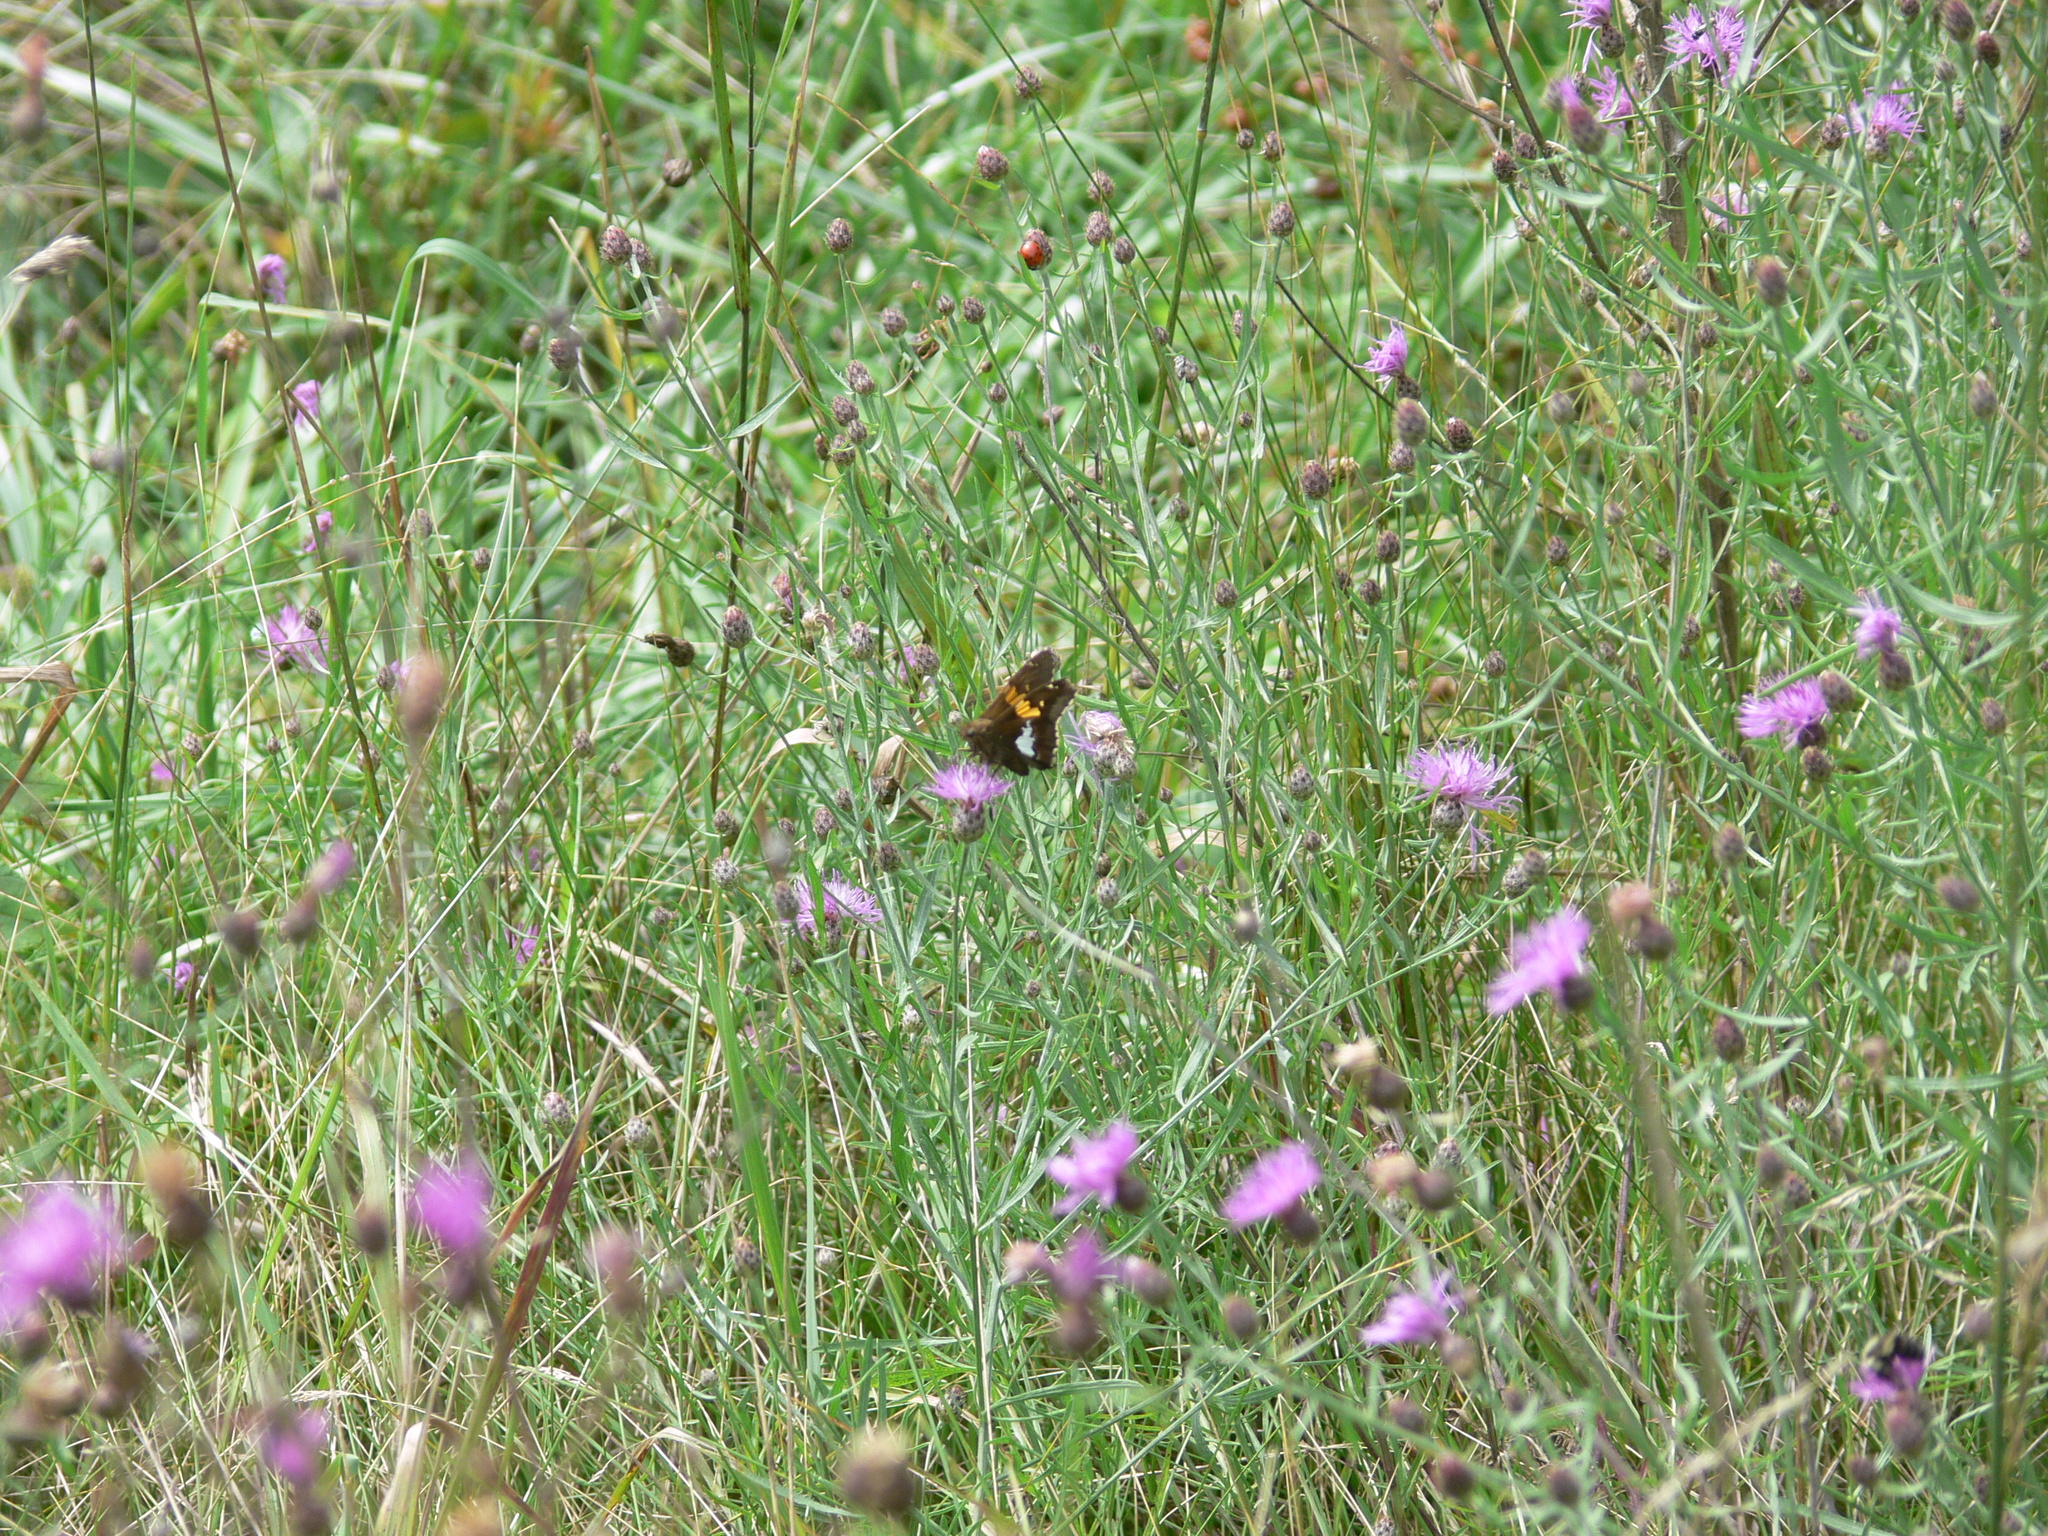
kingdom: Animalia
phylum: Arthropoda
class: Insecta
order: Lepidoptera
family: Hesperiidae
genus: Epargyreus
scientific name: Epargyreus clarus
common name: Silver-spotted skipper
